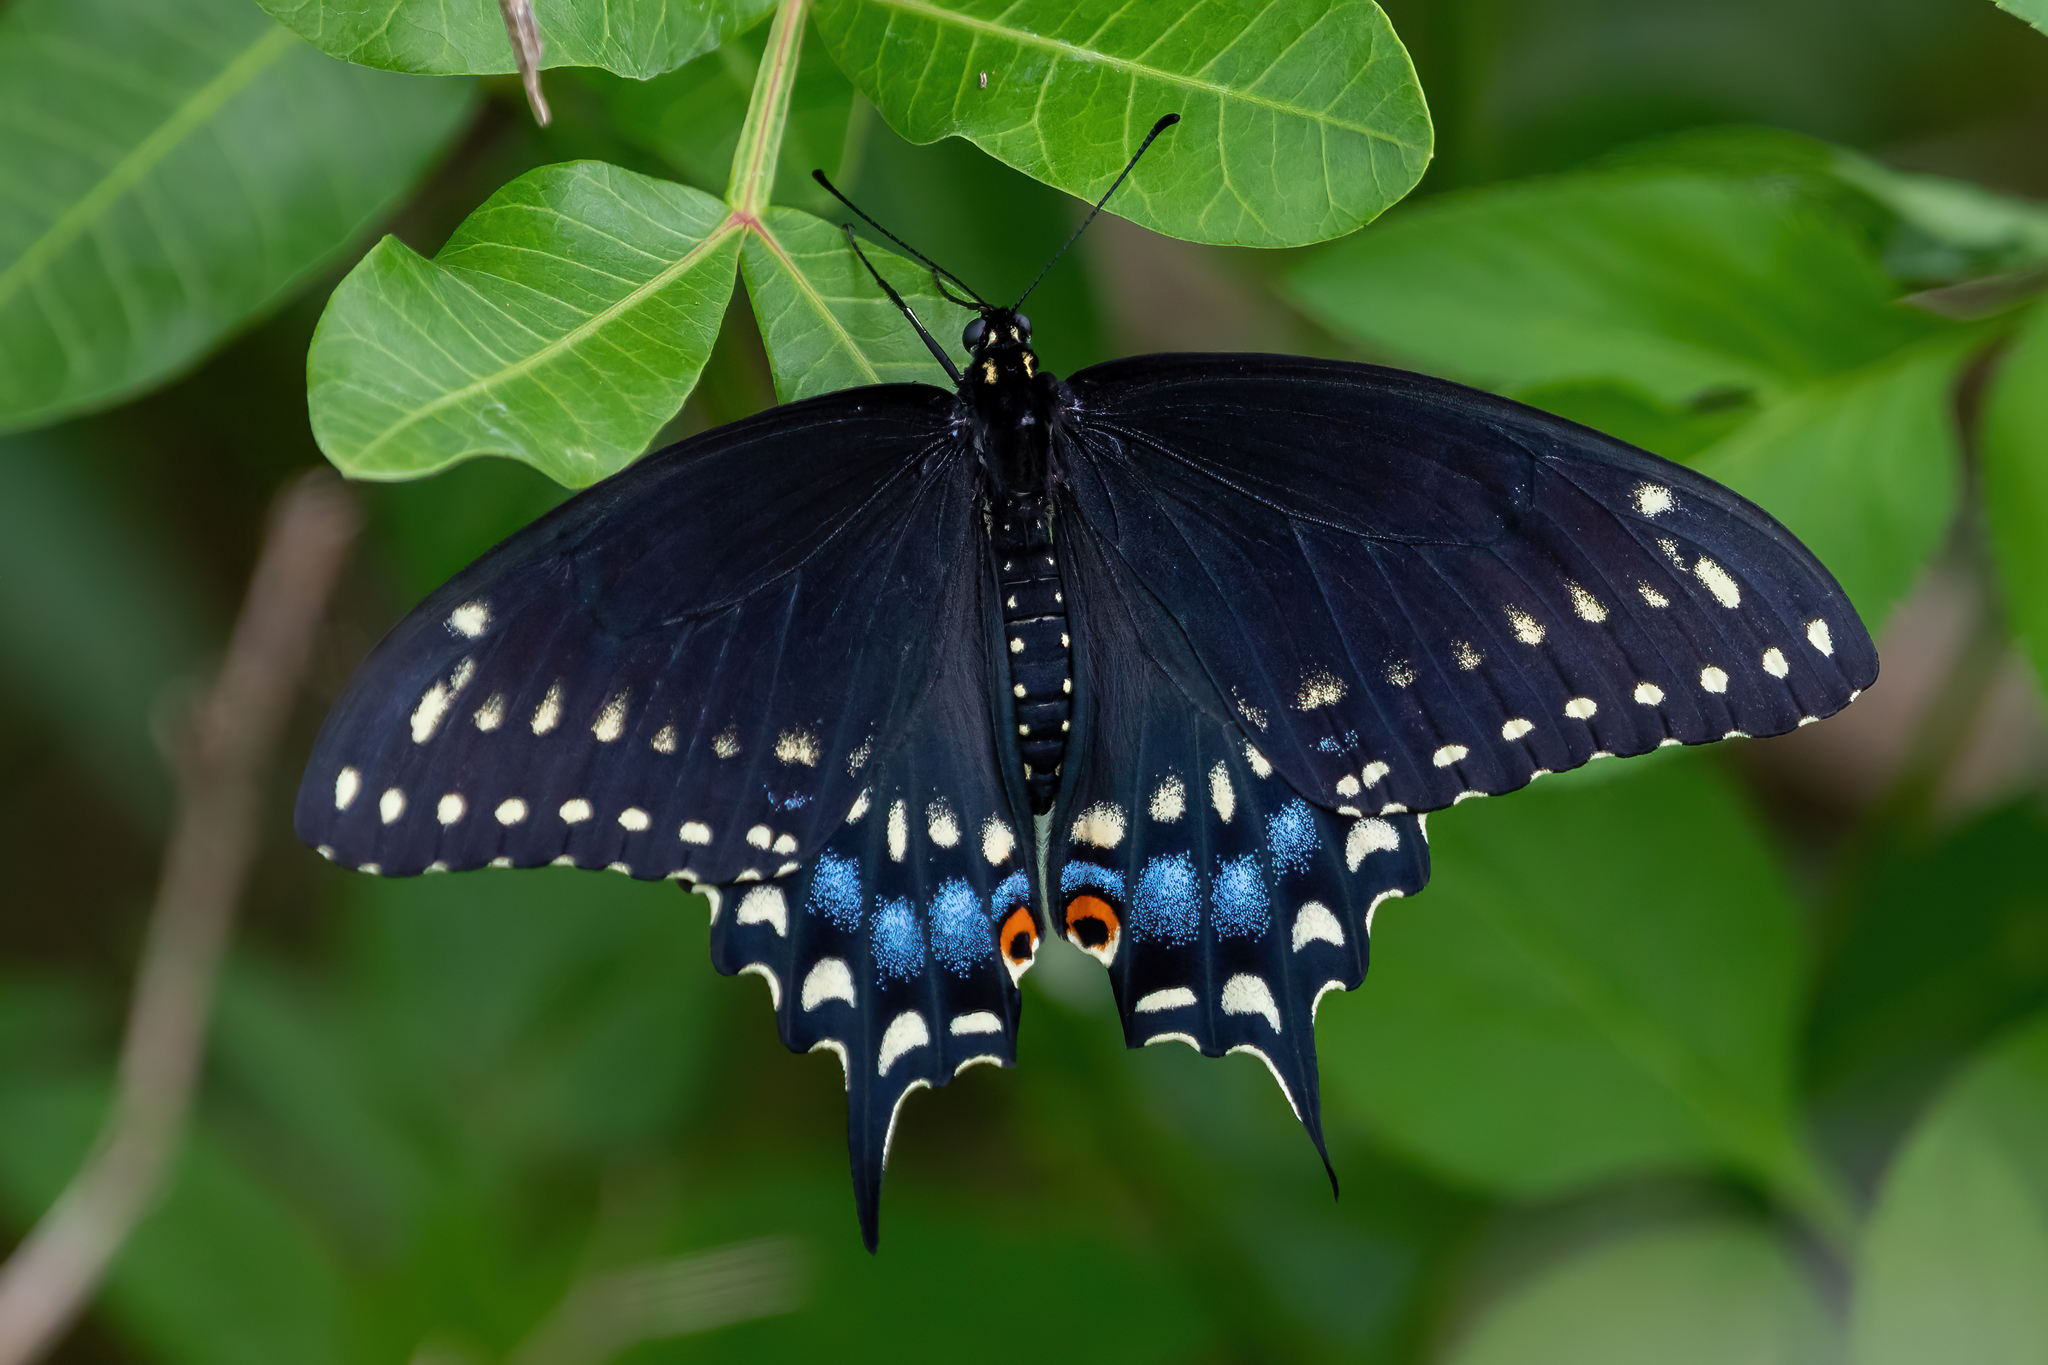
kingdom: Animalia
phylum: Arthropoda
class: Insecta
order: Lepidoptera
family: Papilionidae
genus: Papilio
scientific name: Papilio polyxenes
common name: Black swallowtail
